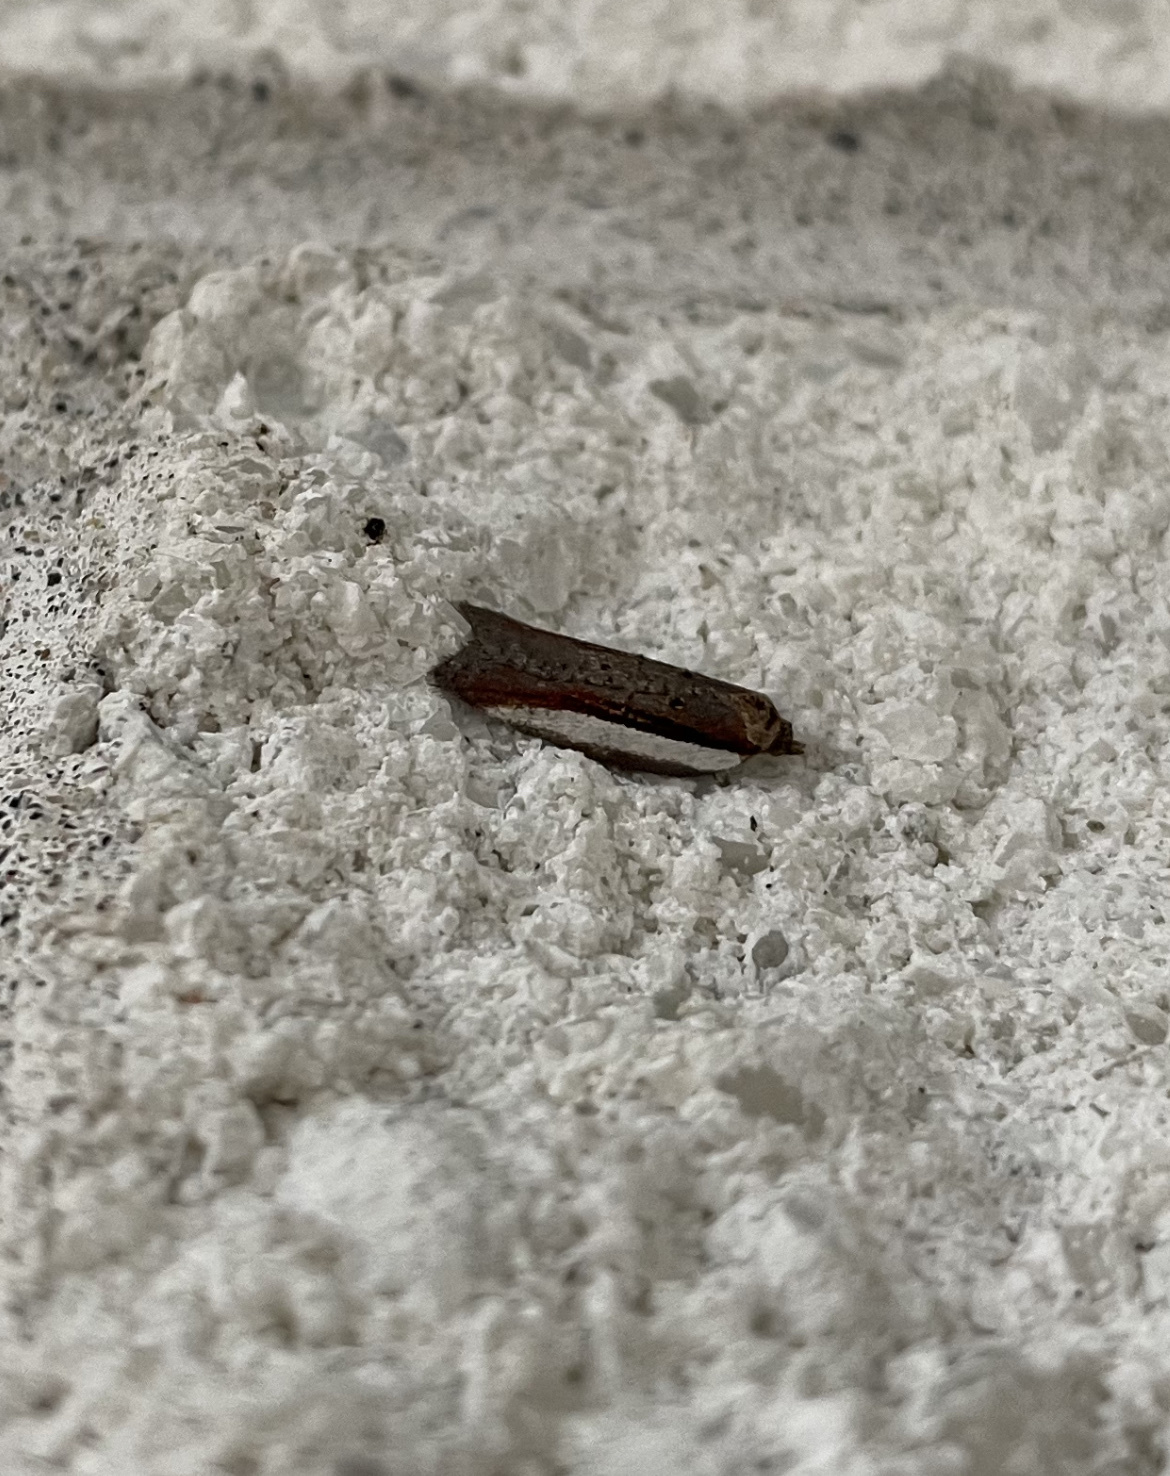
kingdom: Animalia
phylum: Arthropoda
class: Insecta
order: Lepidoptera
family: Tortricidae
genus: Acleris
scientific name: Acleris celiana
